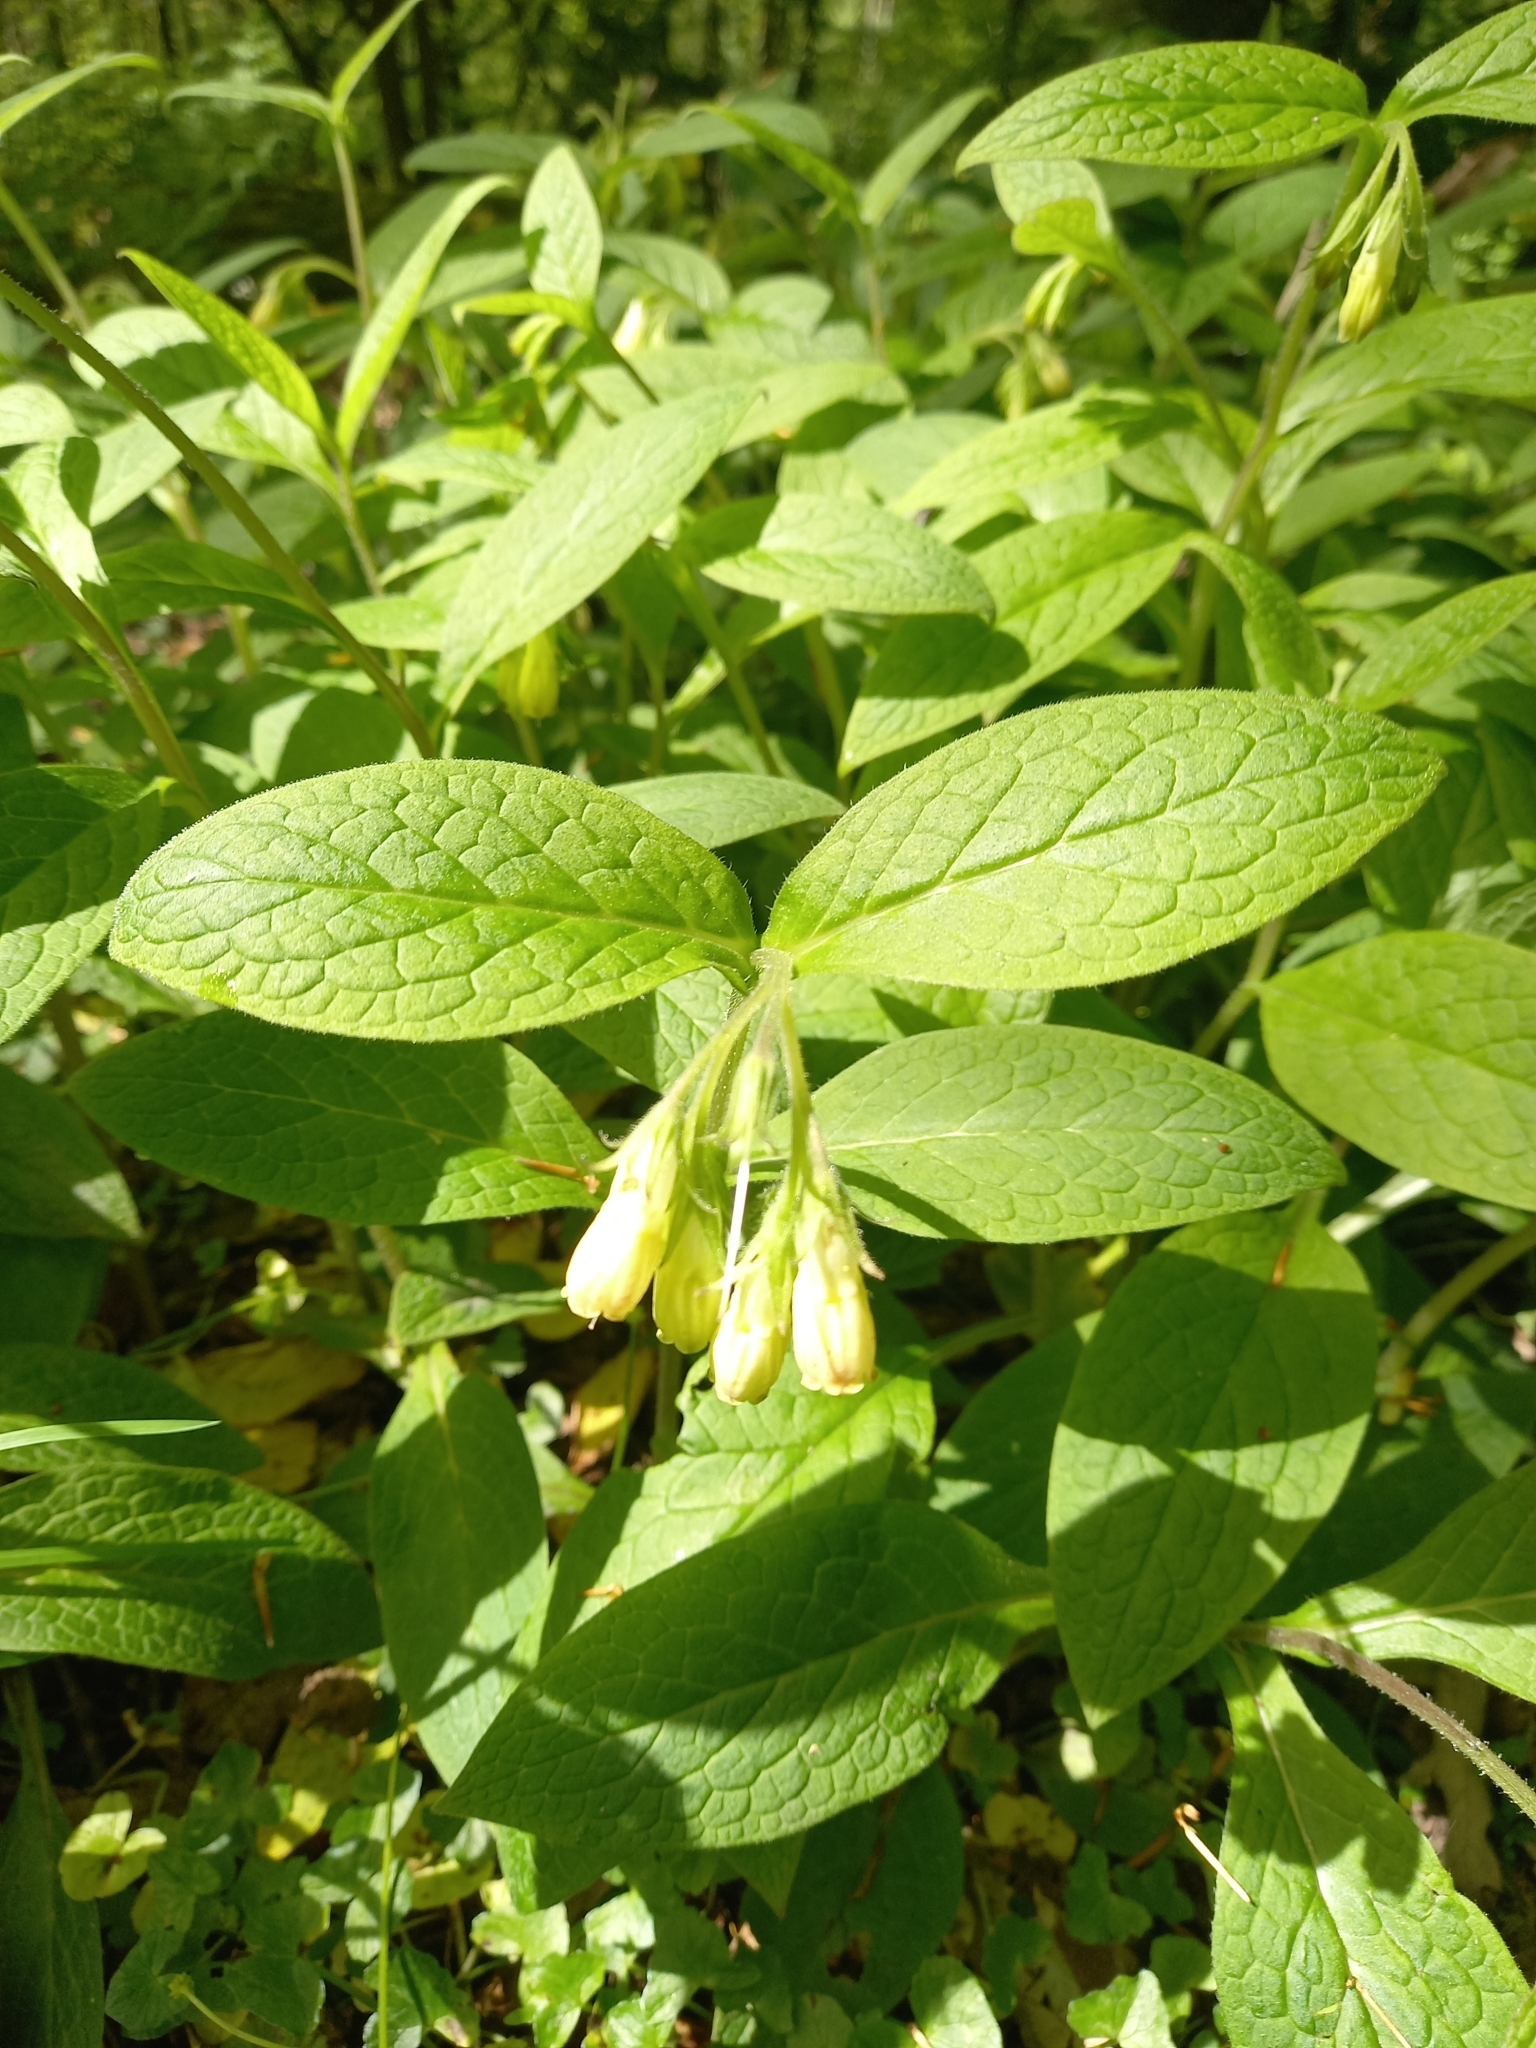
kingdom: Plantae
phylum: Tracheophyta
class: Magnoliopsida
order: Boraginales
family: Boraginaceae
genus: Symphytum
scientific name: Symphytum tuberosum
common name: Tuberous comfrey
